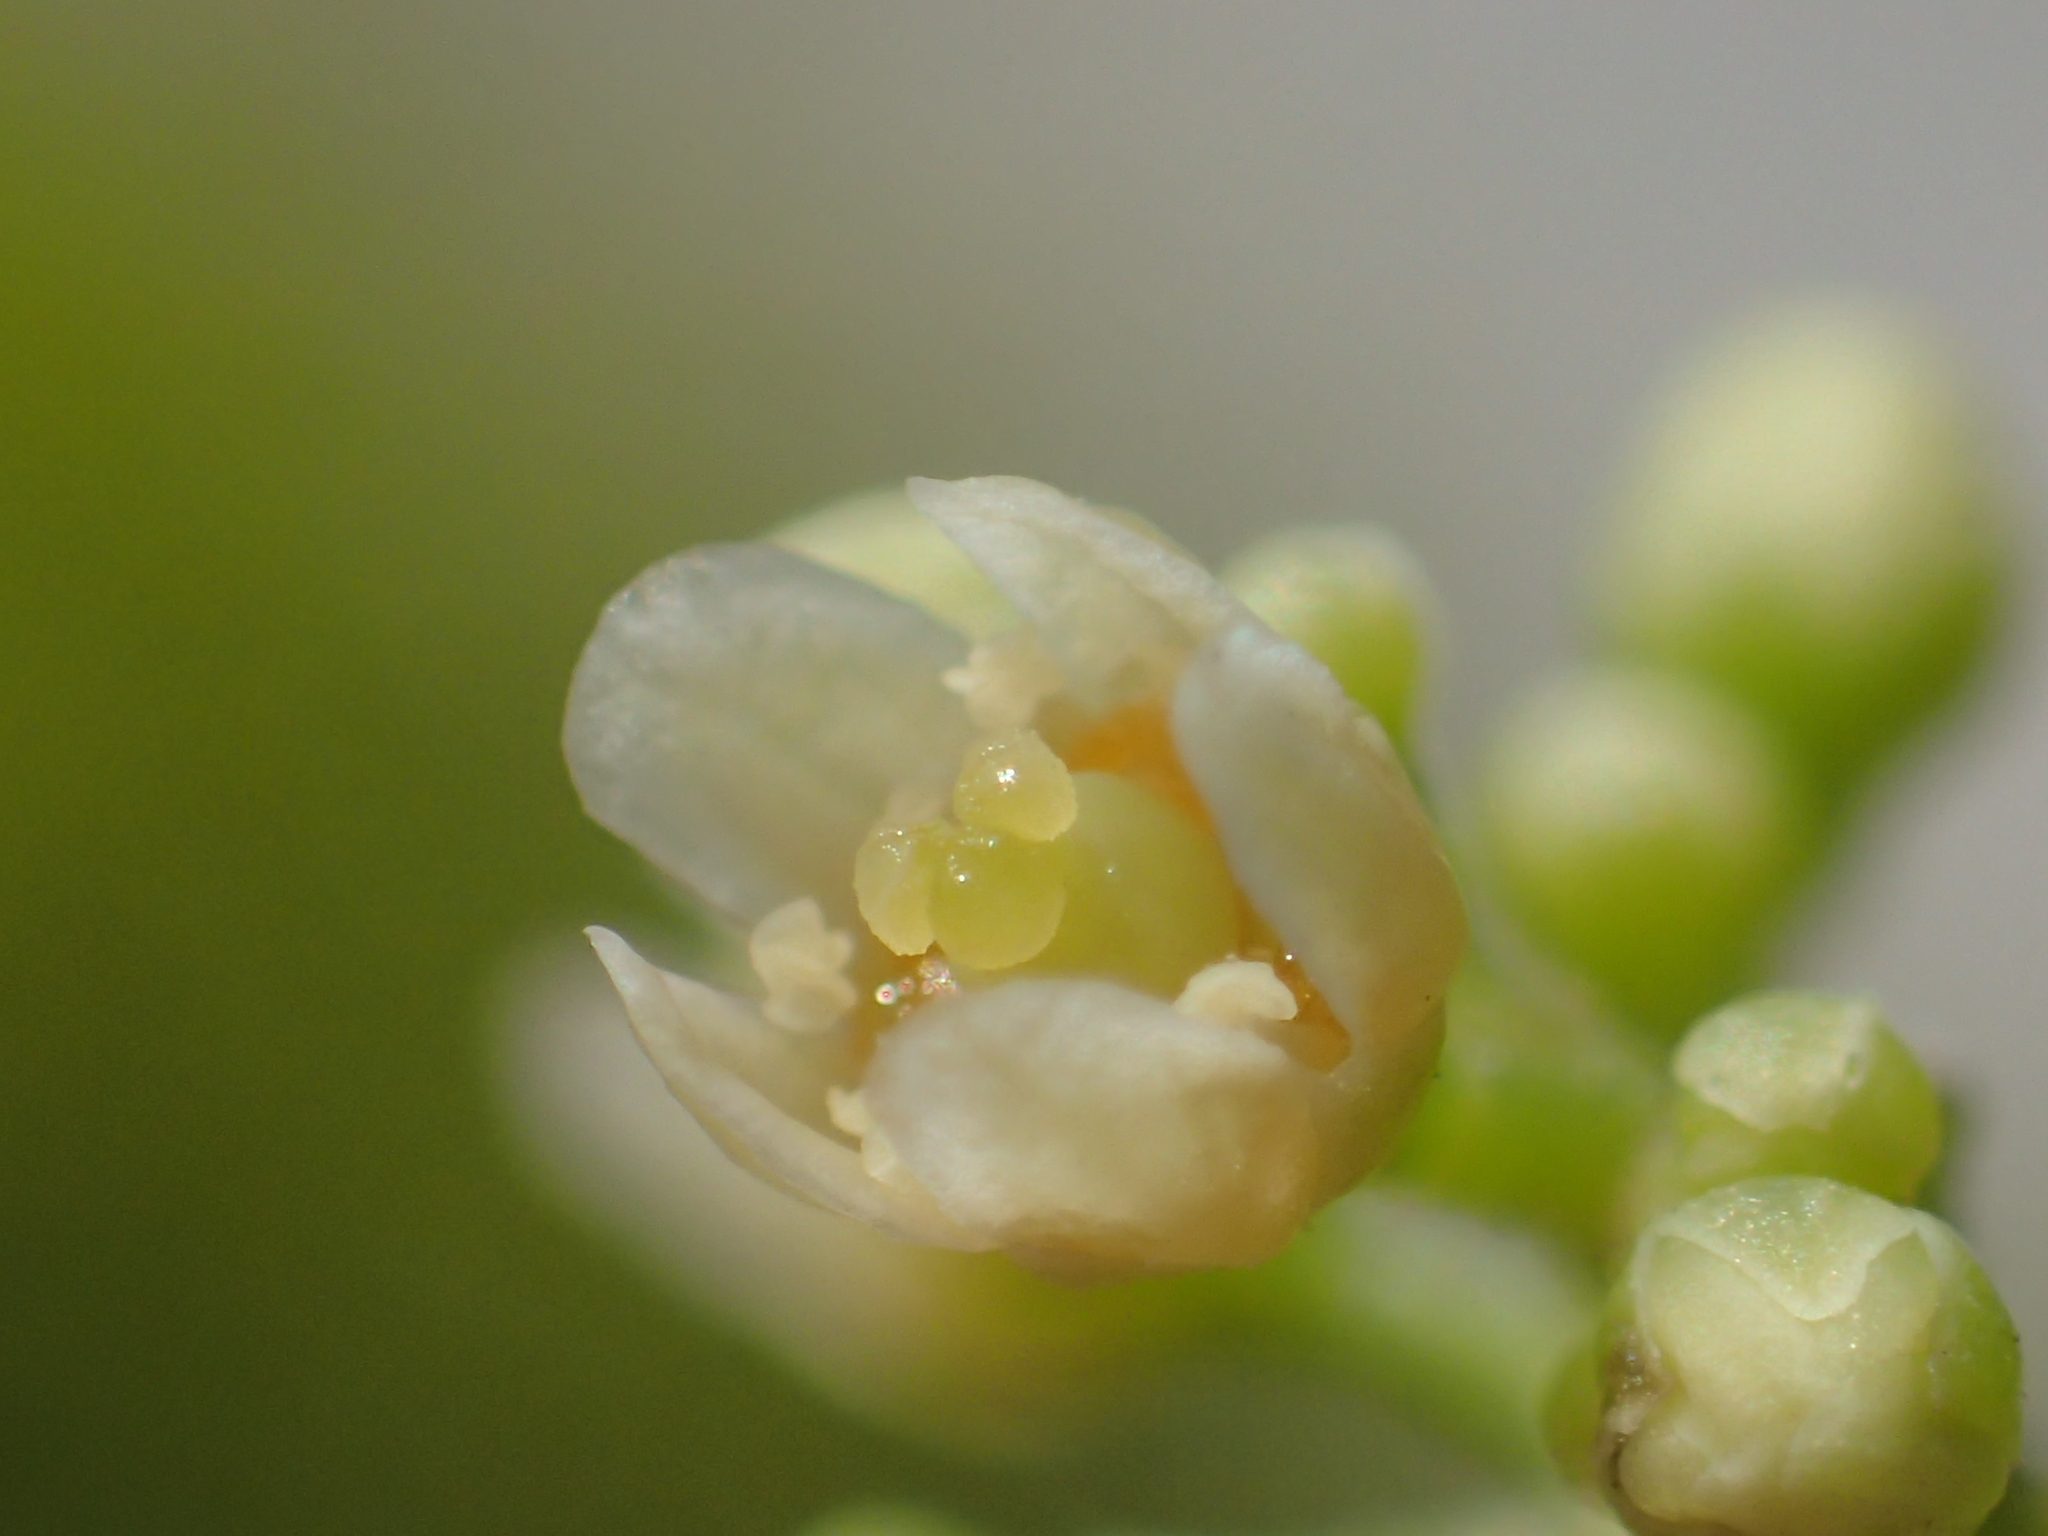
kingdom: Plantae
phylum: Tracheophyta
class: Magnoliopsida
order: Sapindales
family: Anacardiaceae
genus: Schinus
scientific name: Schinus terebinthifolia
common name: Brazilian peppertree
